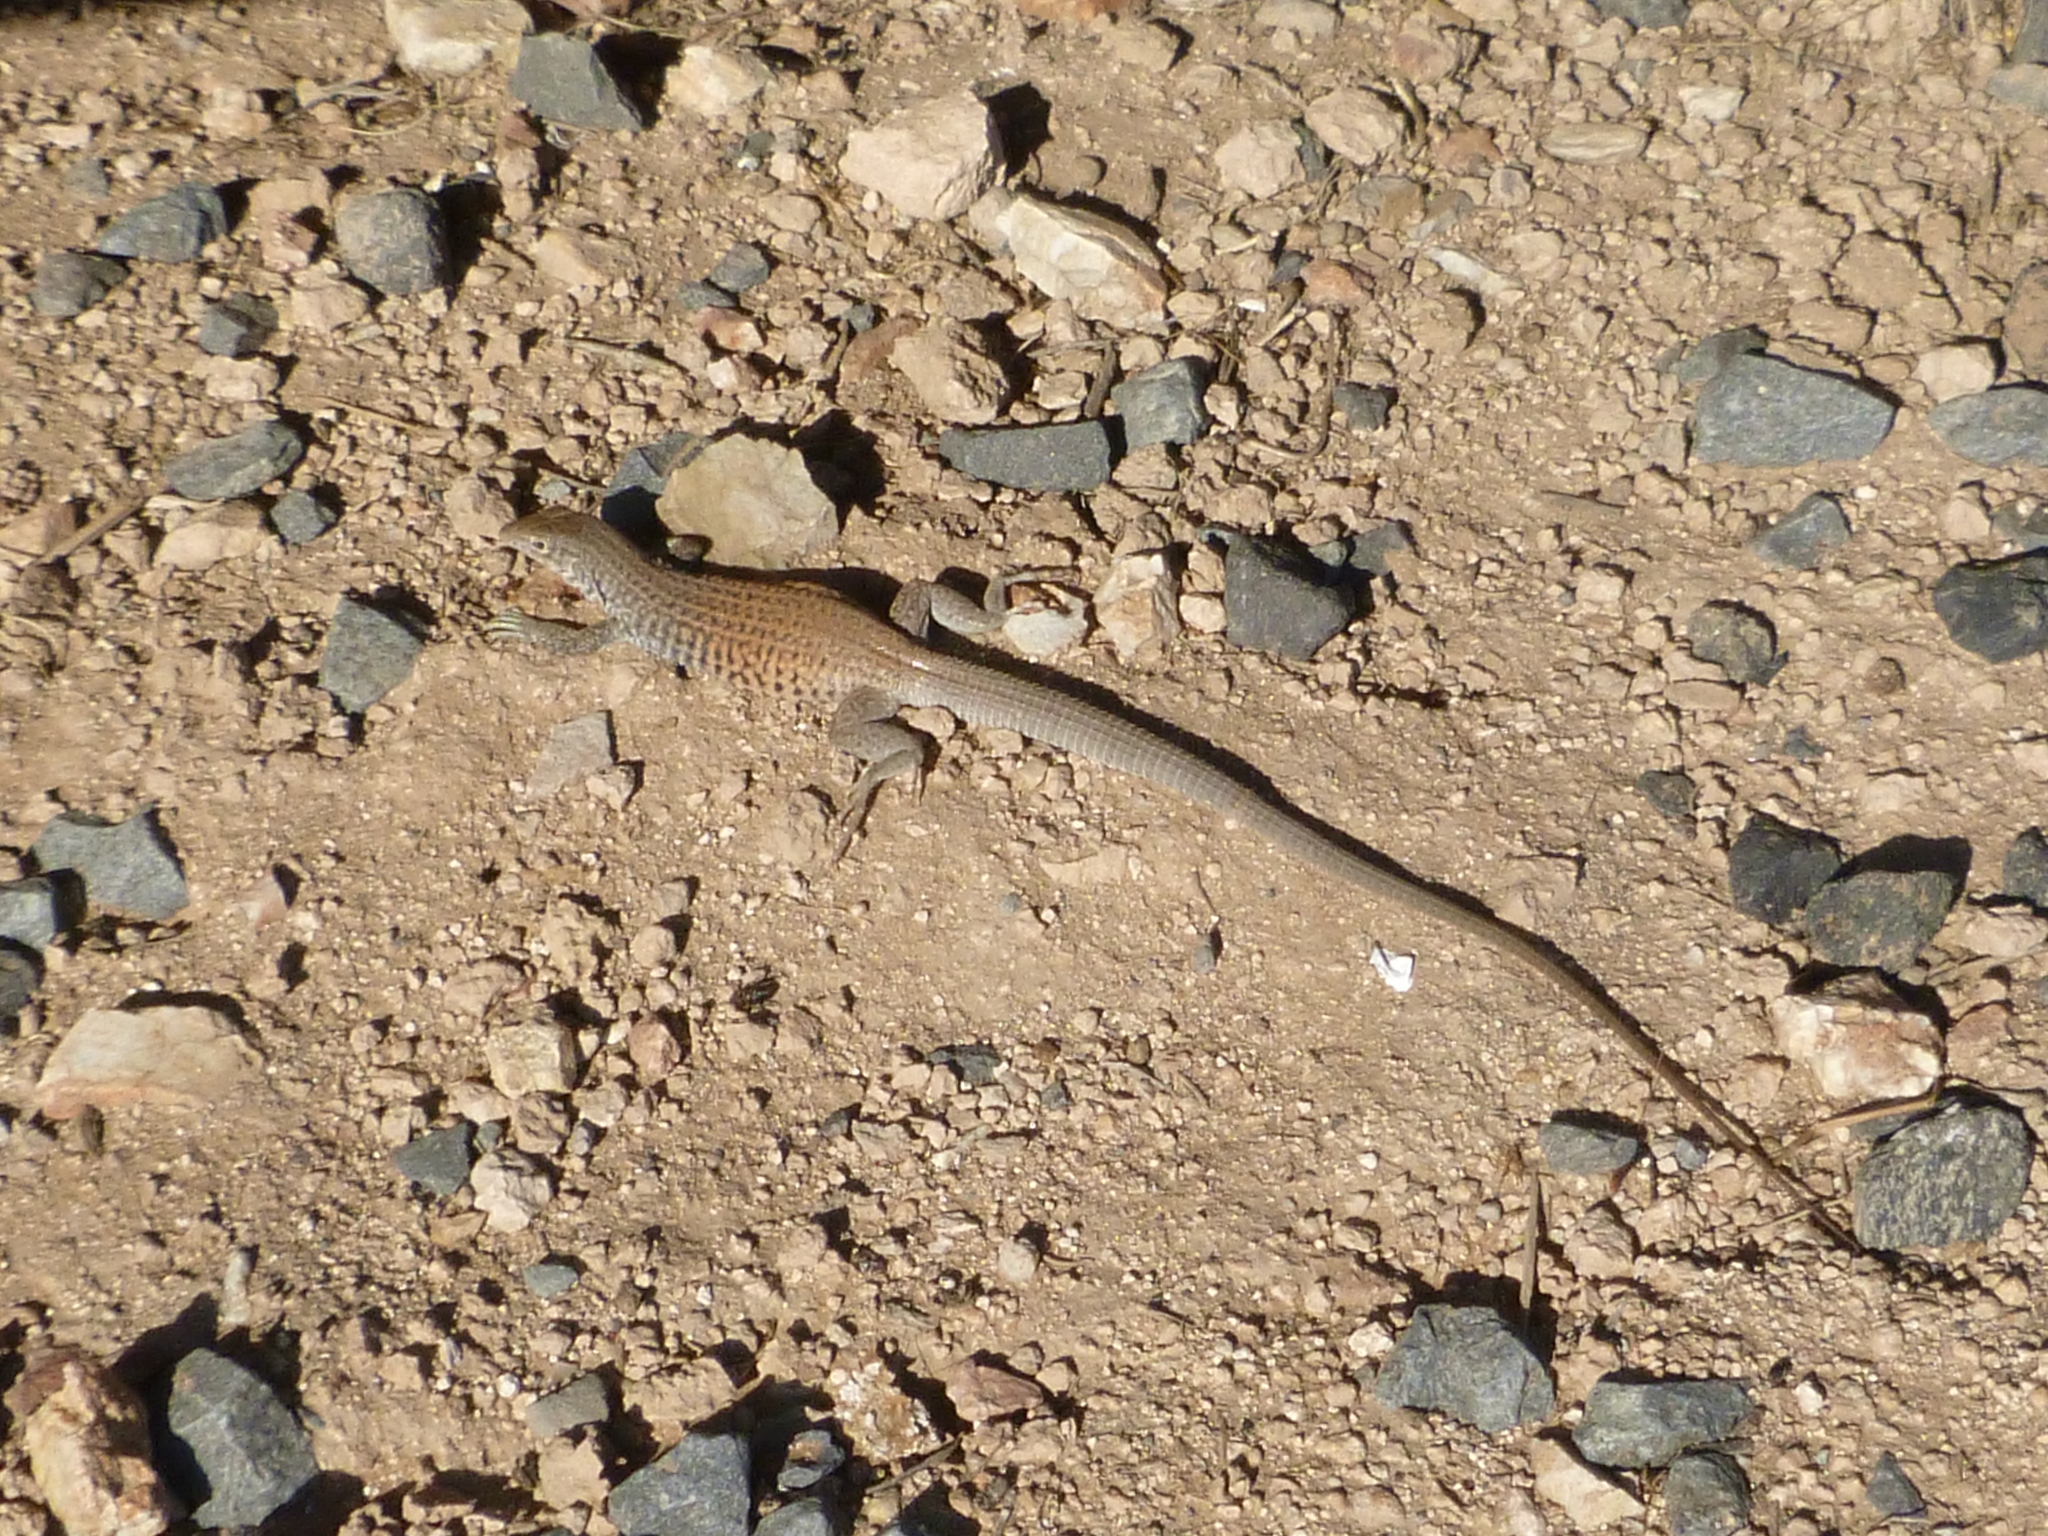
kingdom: Animalia
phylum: Chordata
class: Squamata
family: Teiidae
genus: Aspidoscelis
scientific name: Aspidoscelis tigris
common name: Tiger whiptail
